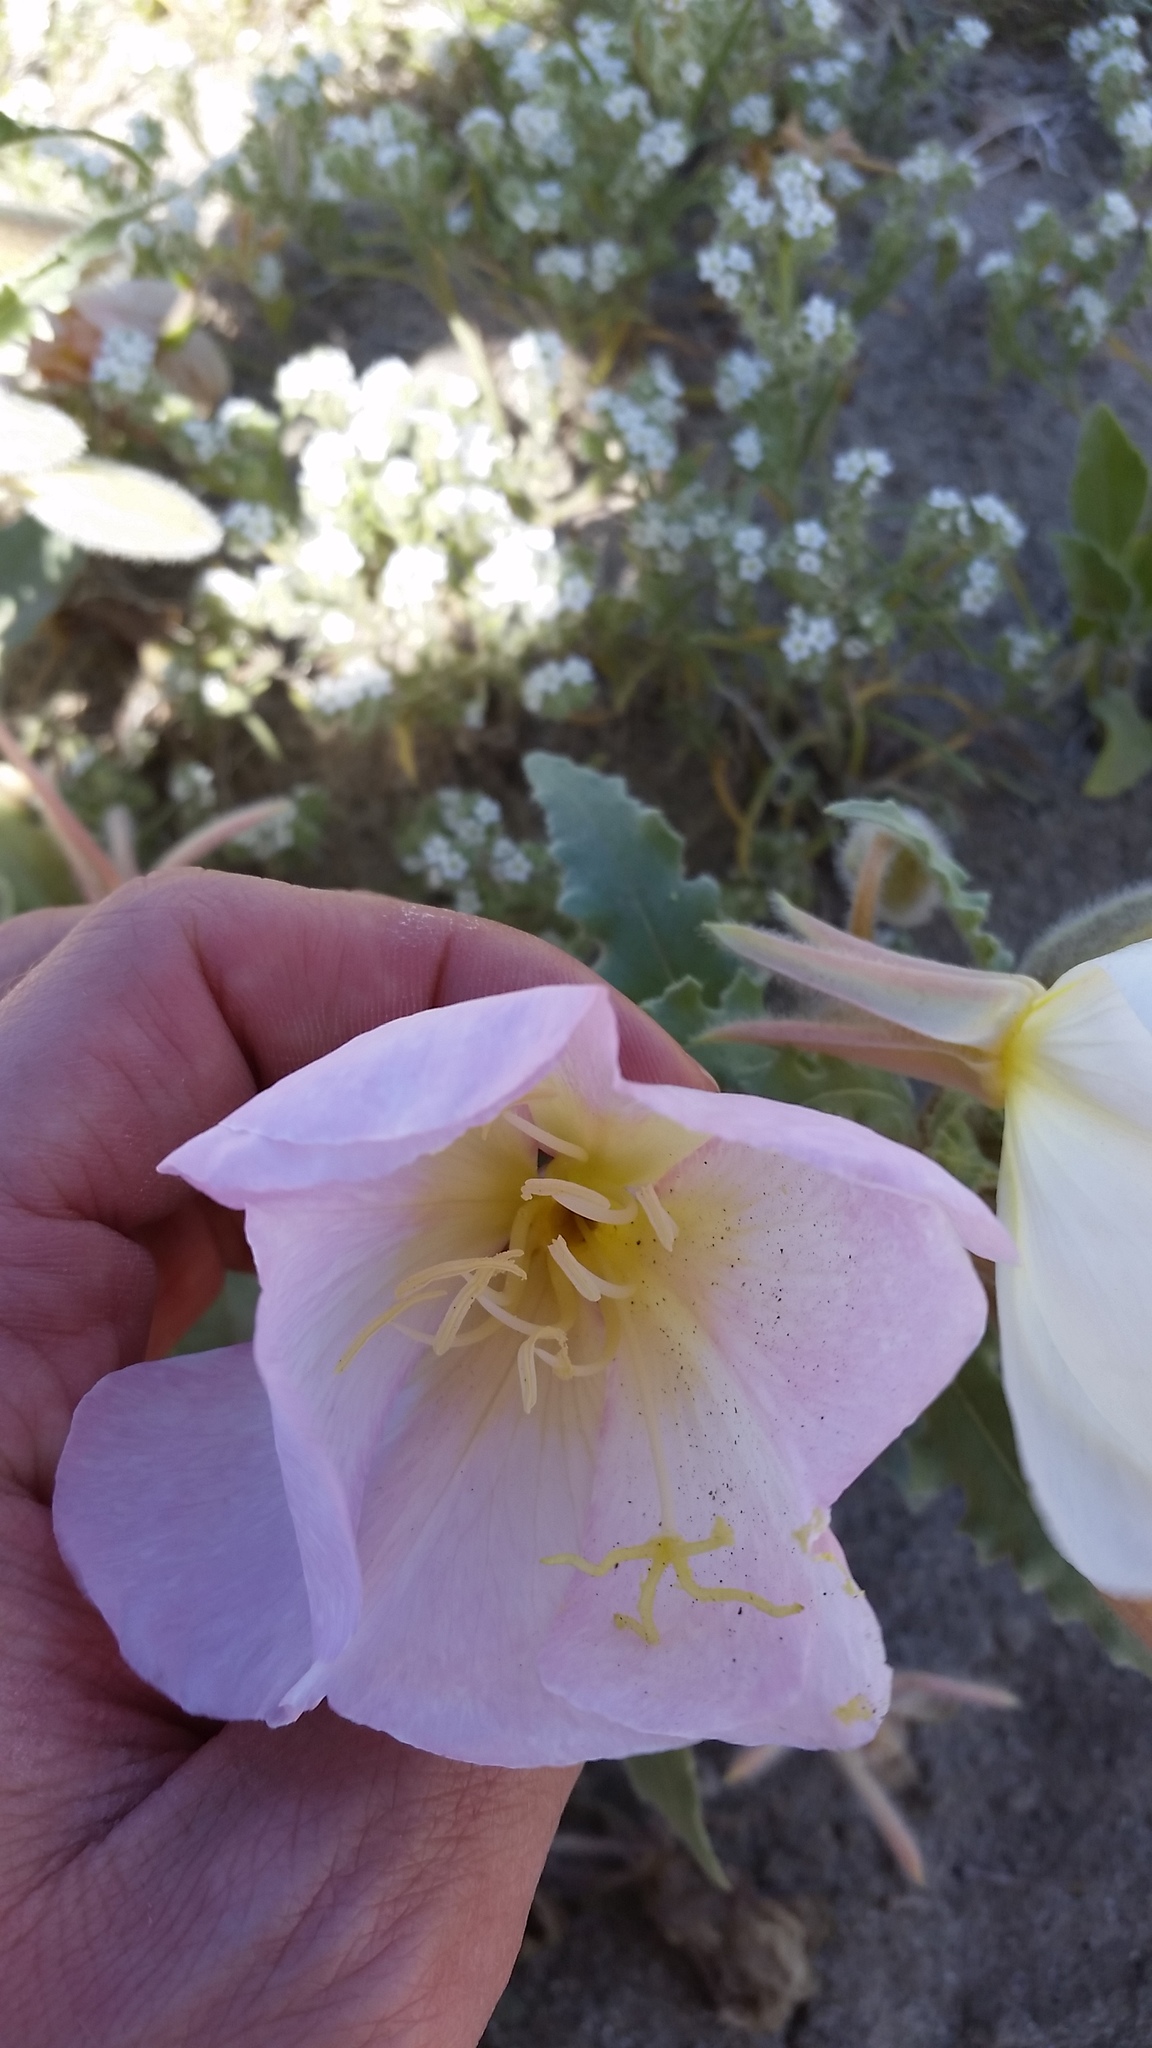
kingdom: Plantae
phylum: Tracheophyta
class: Magnoliopsida
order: Myrtales
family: Onagraceae
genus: Oenothera
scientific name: Oenothera deltoides
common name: Basket evening-primrose
